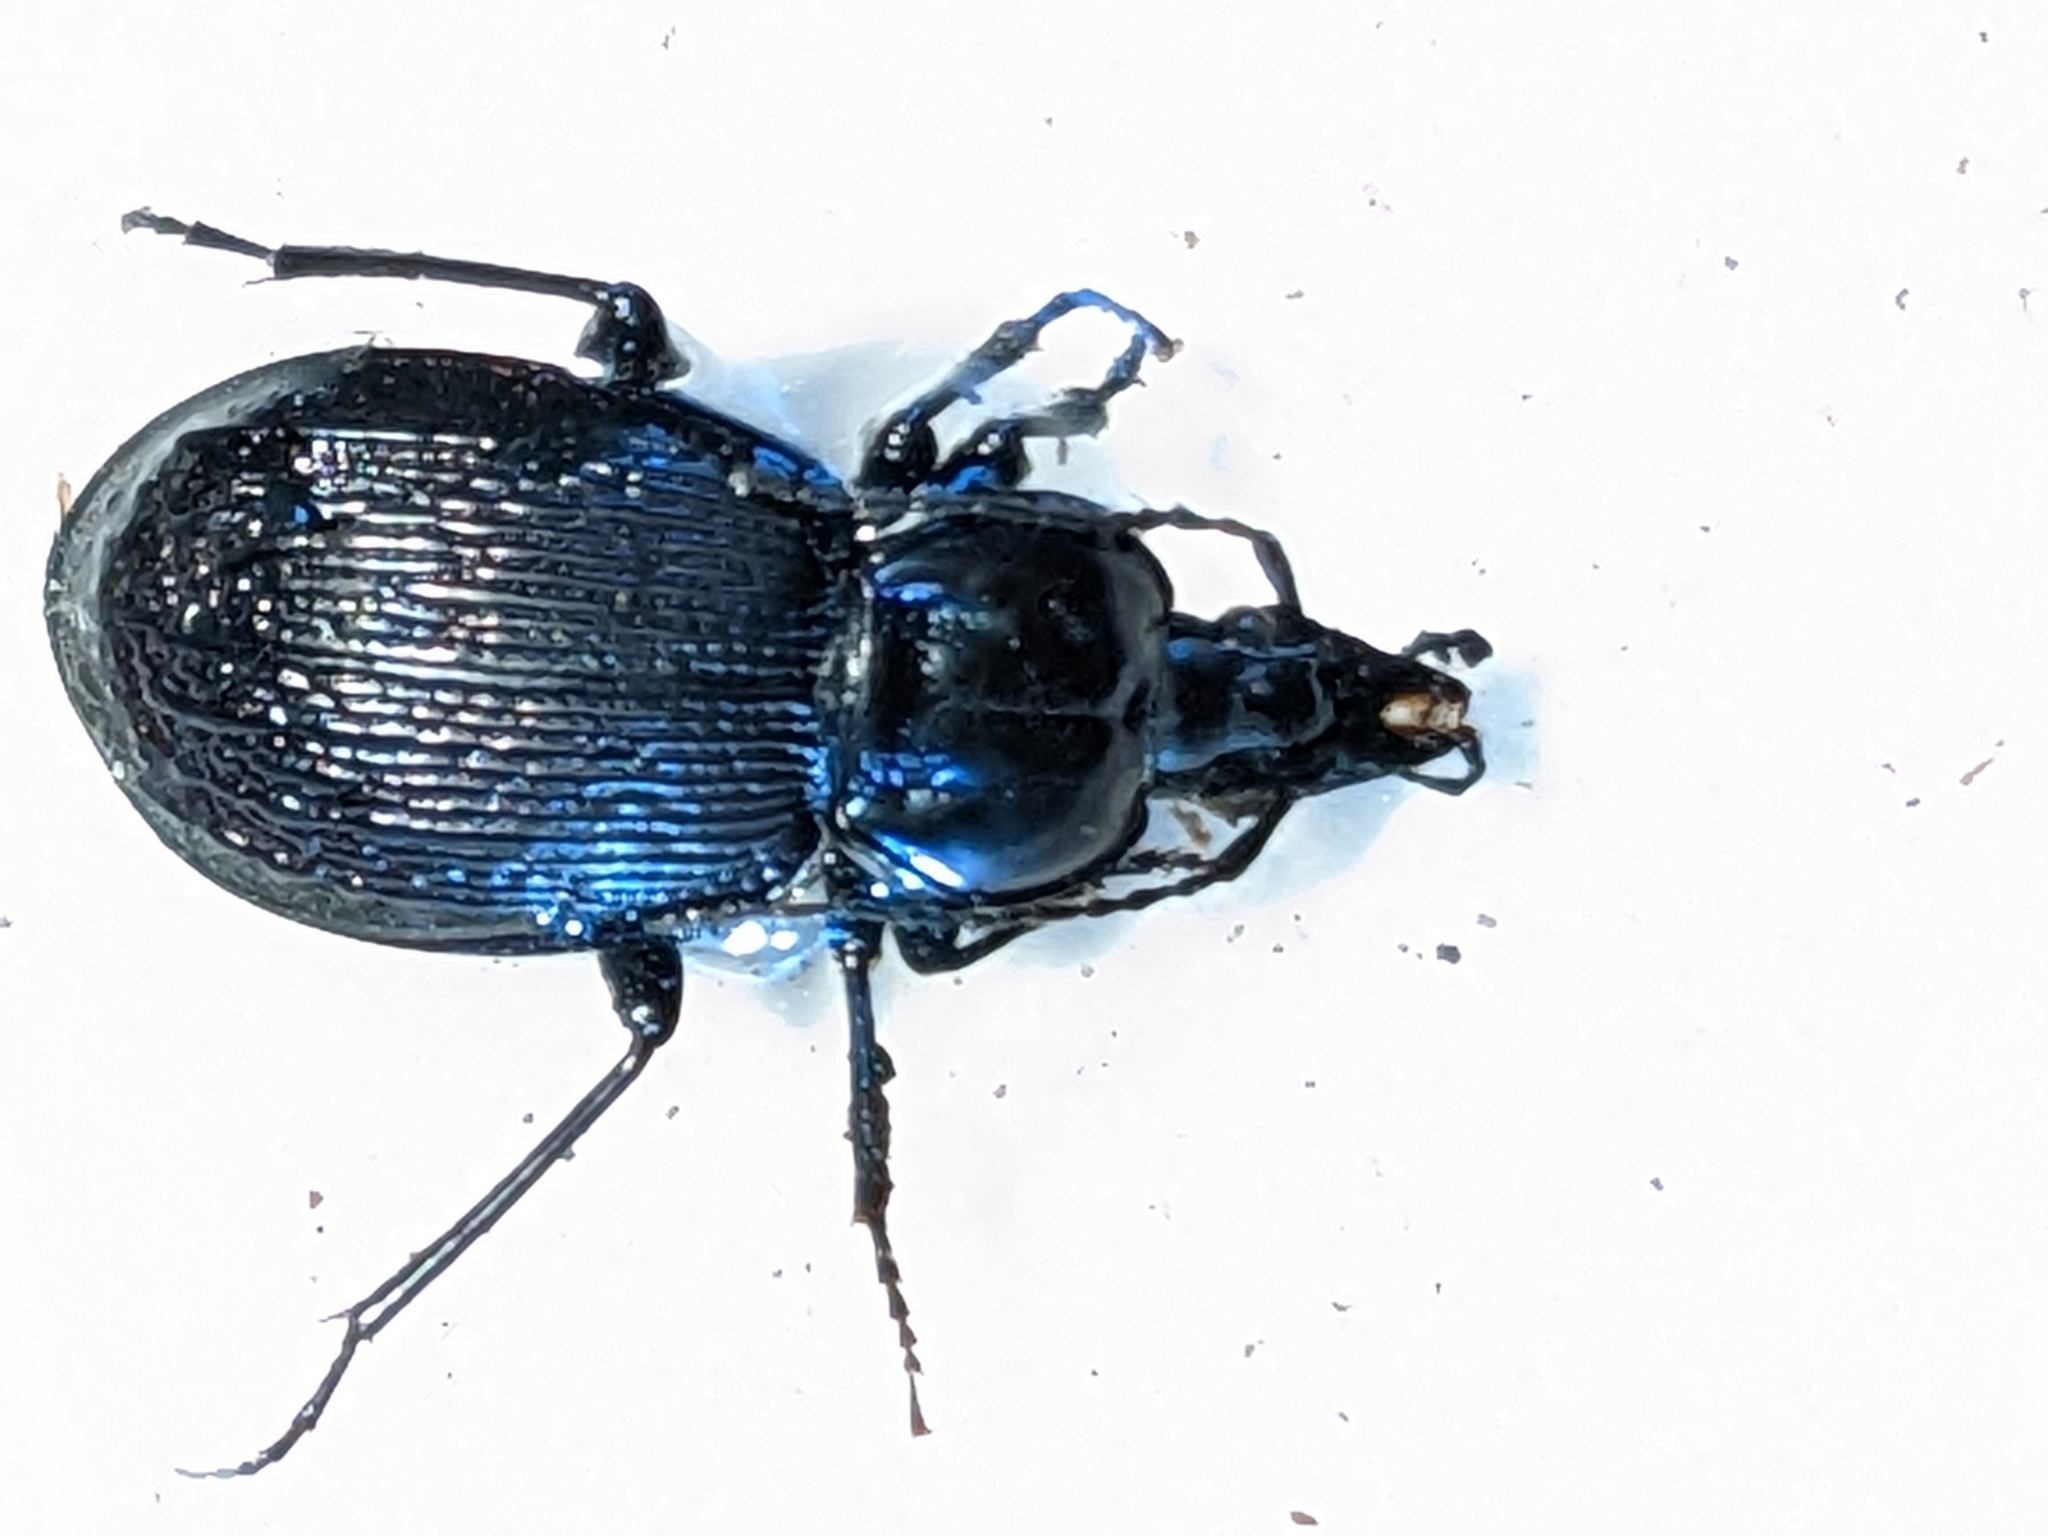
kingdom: Animalia
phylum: Arthropoda
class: Insecta
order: Coleoptera
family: Carabidae
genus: Sphaeroderus
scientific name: Sphaeroderus canadensis
